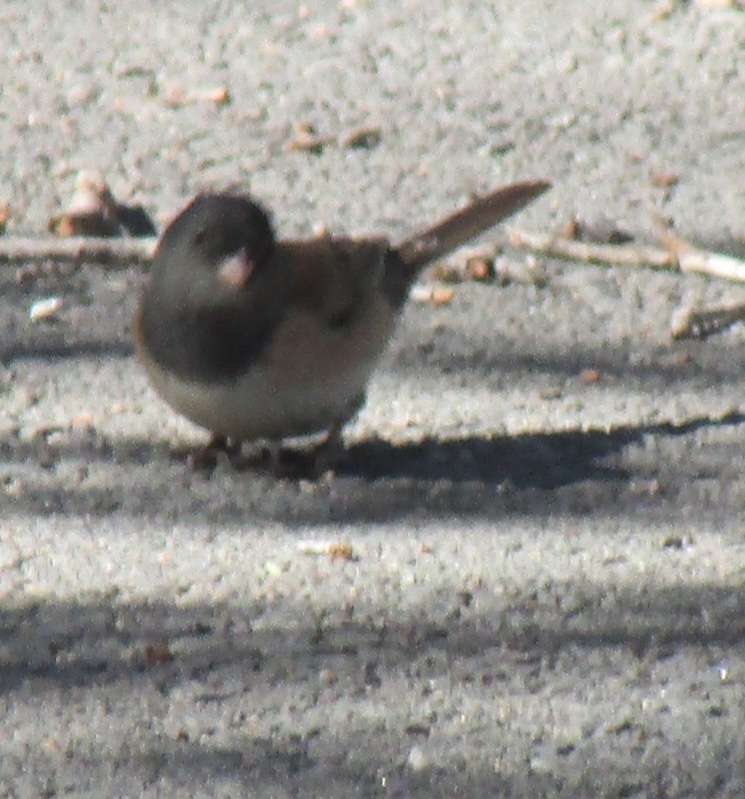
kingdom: Animalia
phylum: Chordata
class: Aves
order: Passeriformes
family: Passerellidae
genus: Junco
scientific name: Junco hyemalis
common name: Dark-eyed junco
